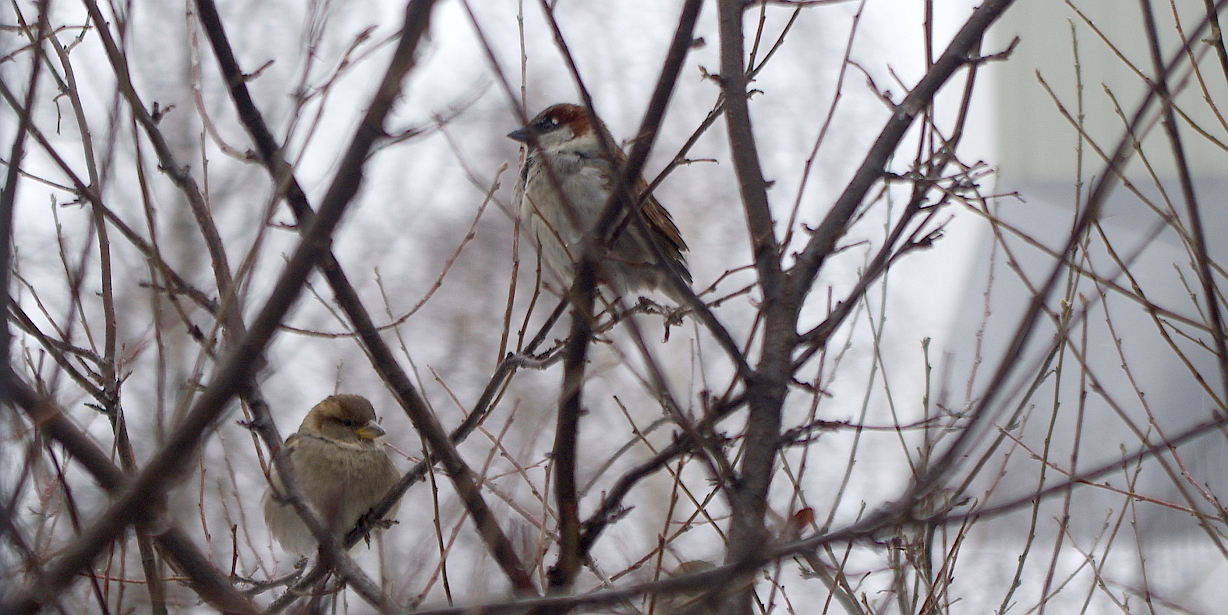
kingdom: Animalia
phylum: Chordata
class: Aves
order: Passeriformes
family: Passeridae
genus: Passer
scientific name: Passer domesticus
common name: House sparrow
